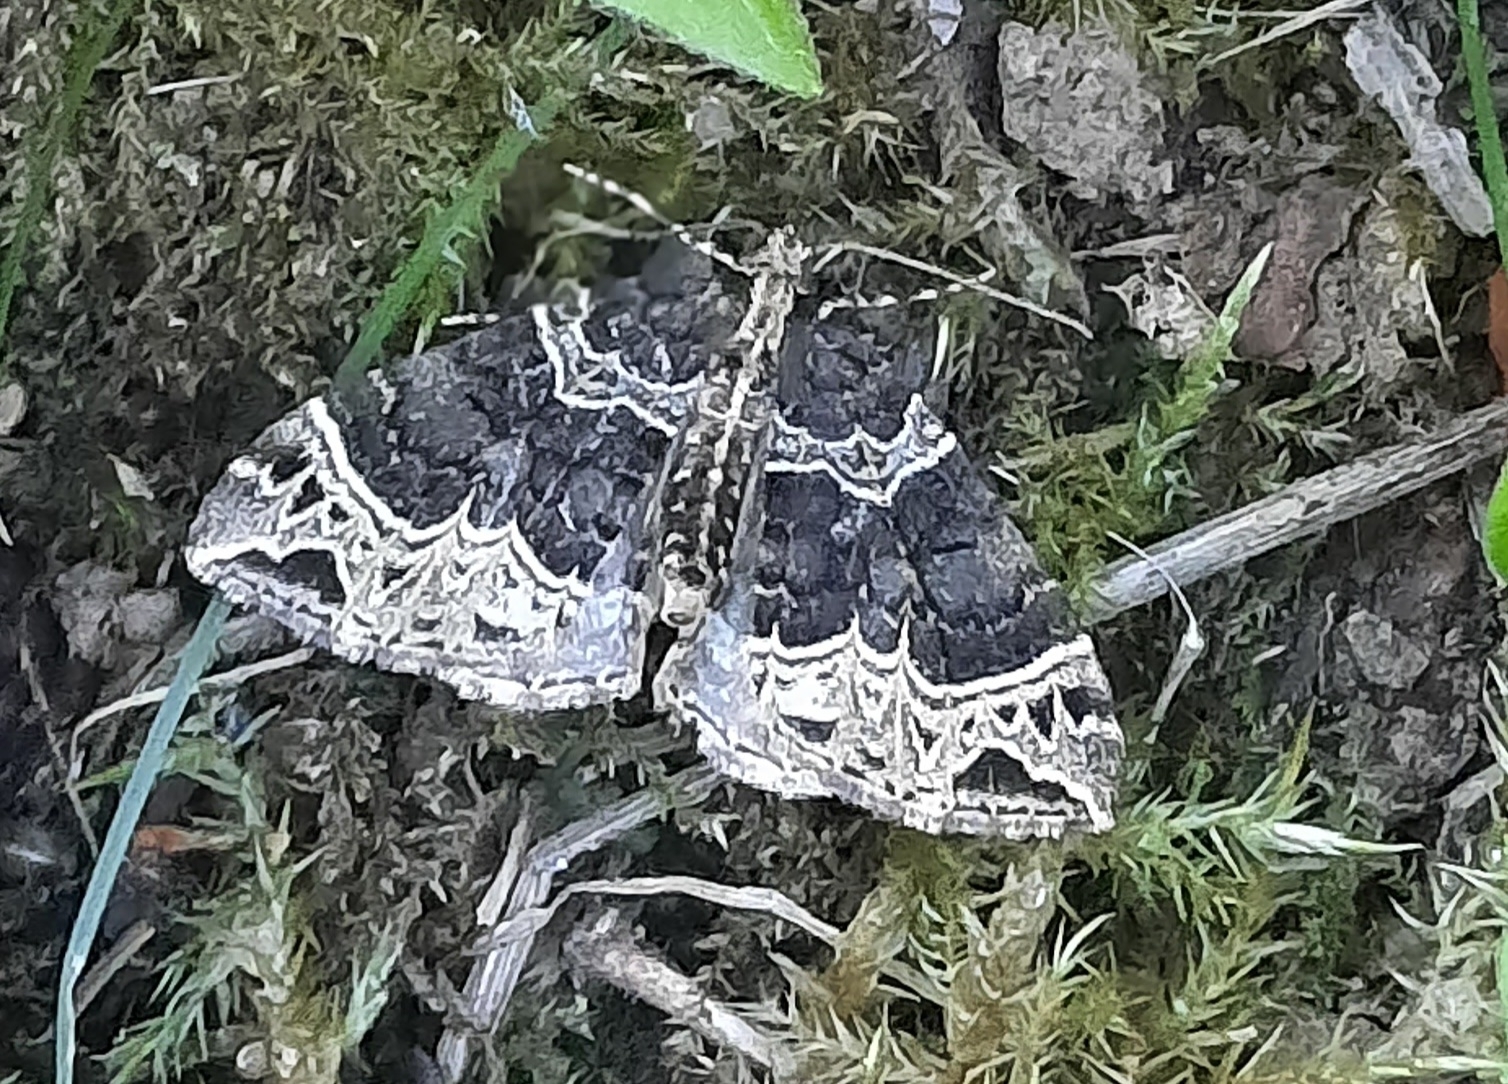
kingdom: Animalia
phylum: Arthropoda
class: Insecta
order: Lepidoptera
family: Geometridae
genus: Ecliptopera
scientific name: Ecliptopera silaceata
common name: Small phoenix
